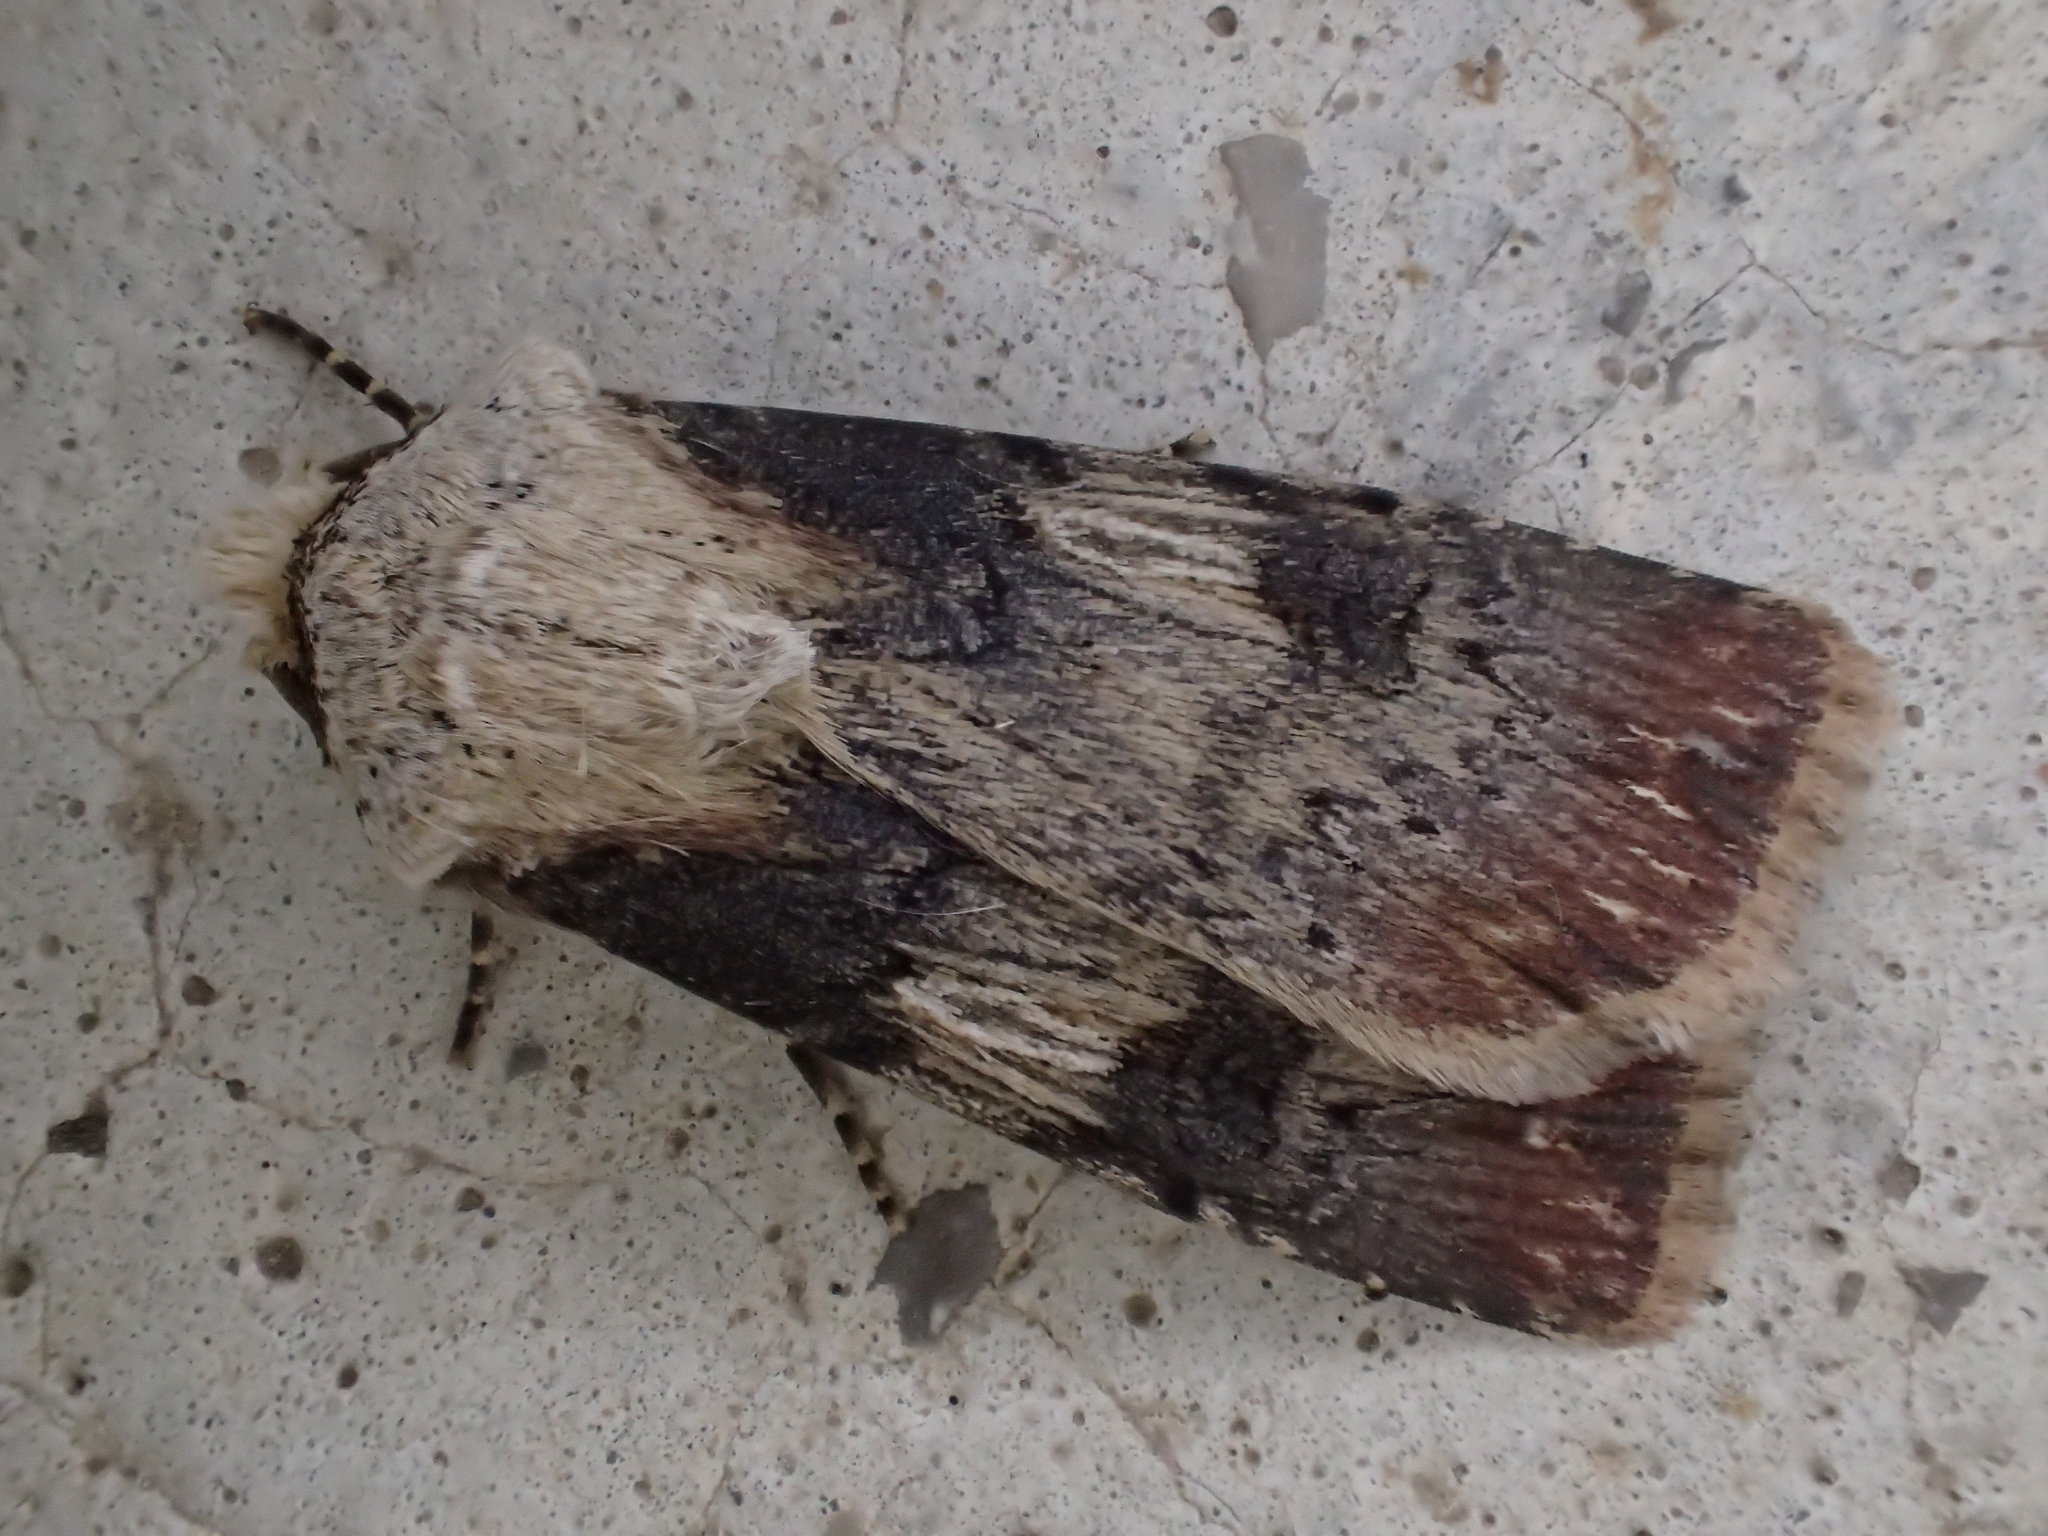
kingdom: Animalia
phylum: Arthropoda
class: Insecta
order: Lepidoptera
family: Noctuidae
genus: Agrotis
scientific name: Agrotis puta
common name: Shuttle-shaped dart
